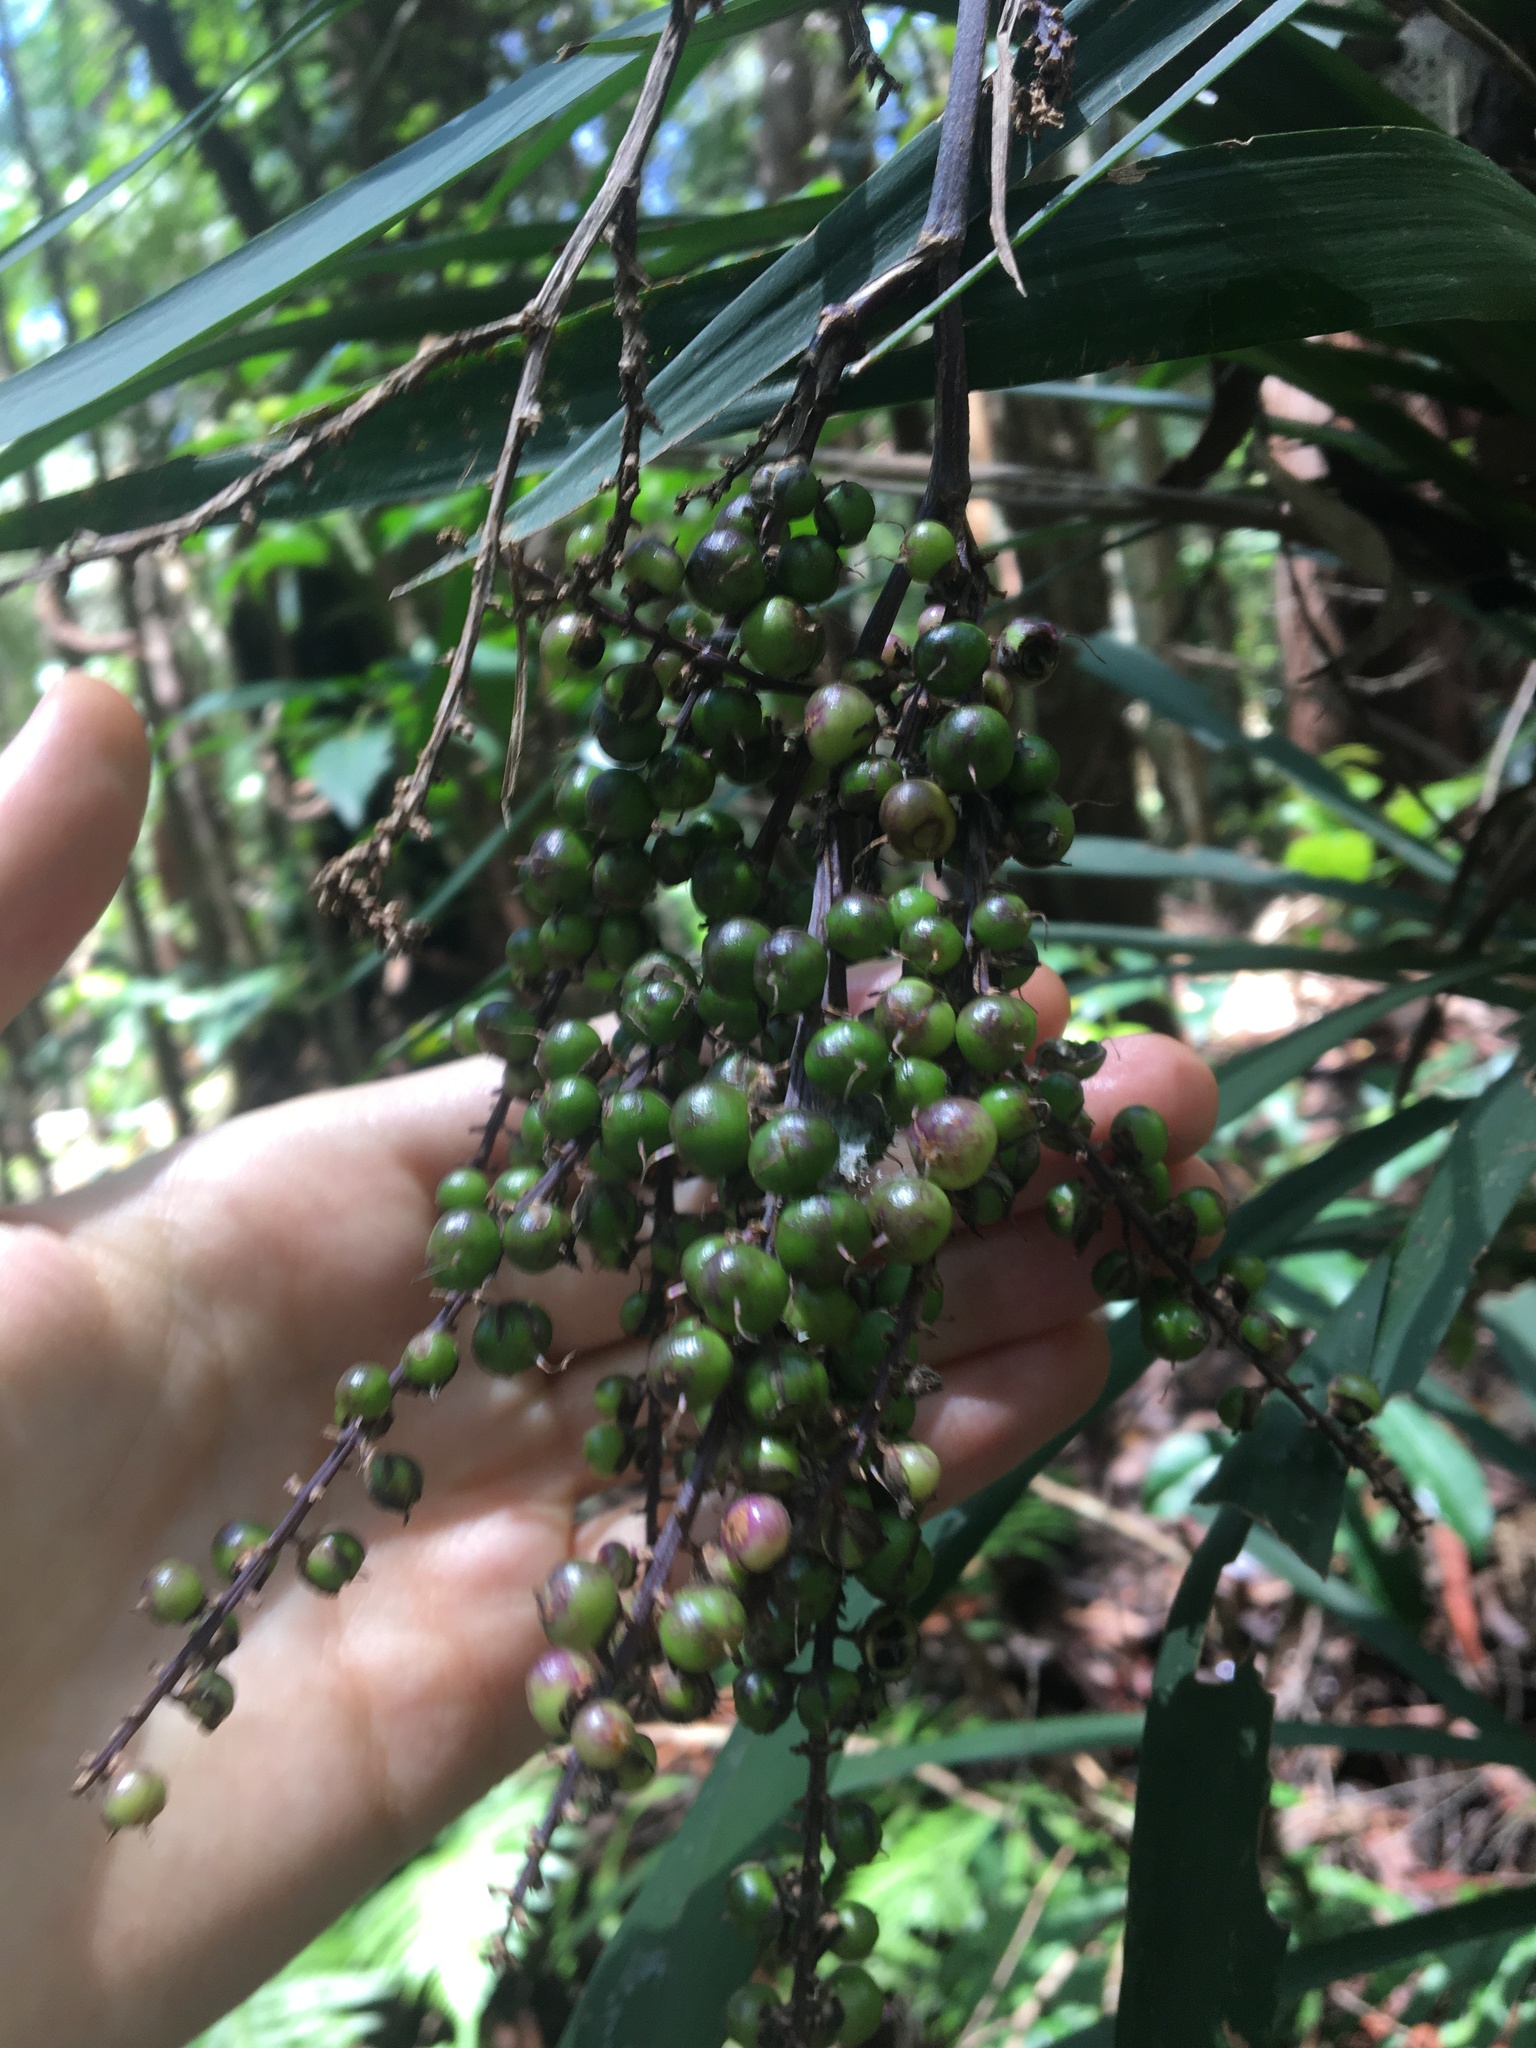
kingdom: Plantae
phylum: Tracheophyta
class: Liliopsida
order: Asparagales
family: Asparagaceae
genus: Cordyline
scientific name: Cordyline stricta
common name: Narrow-leaf palm-lily
